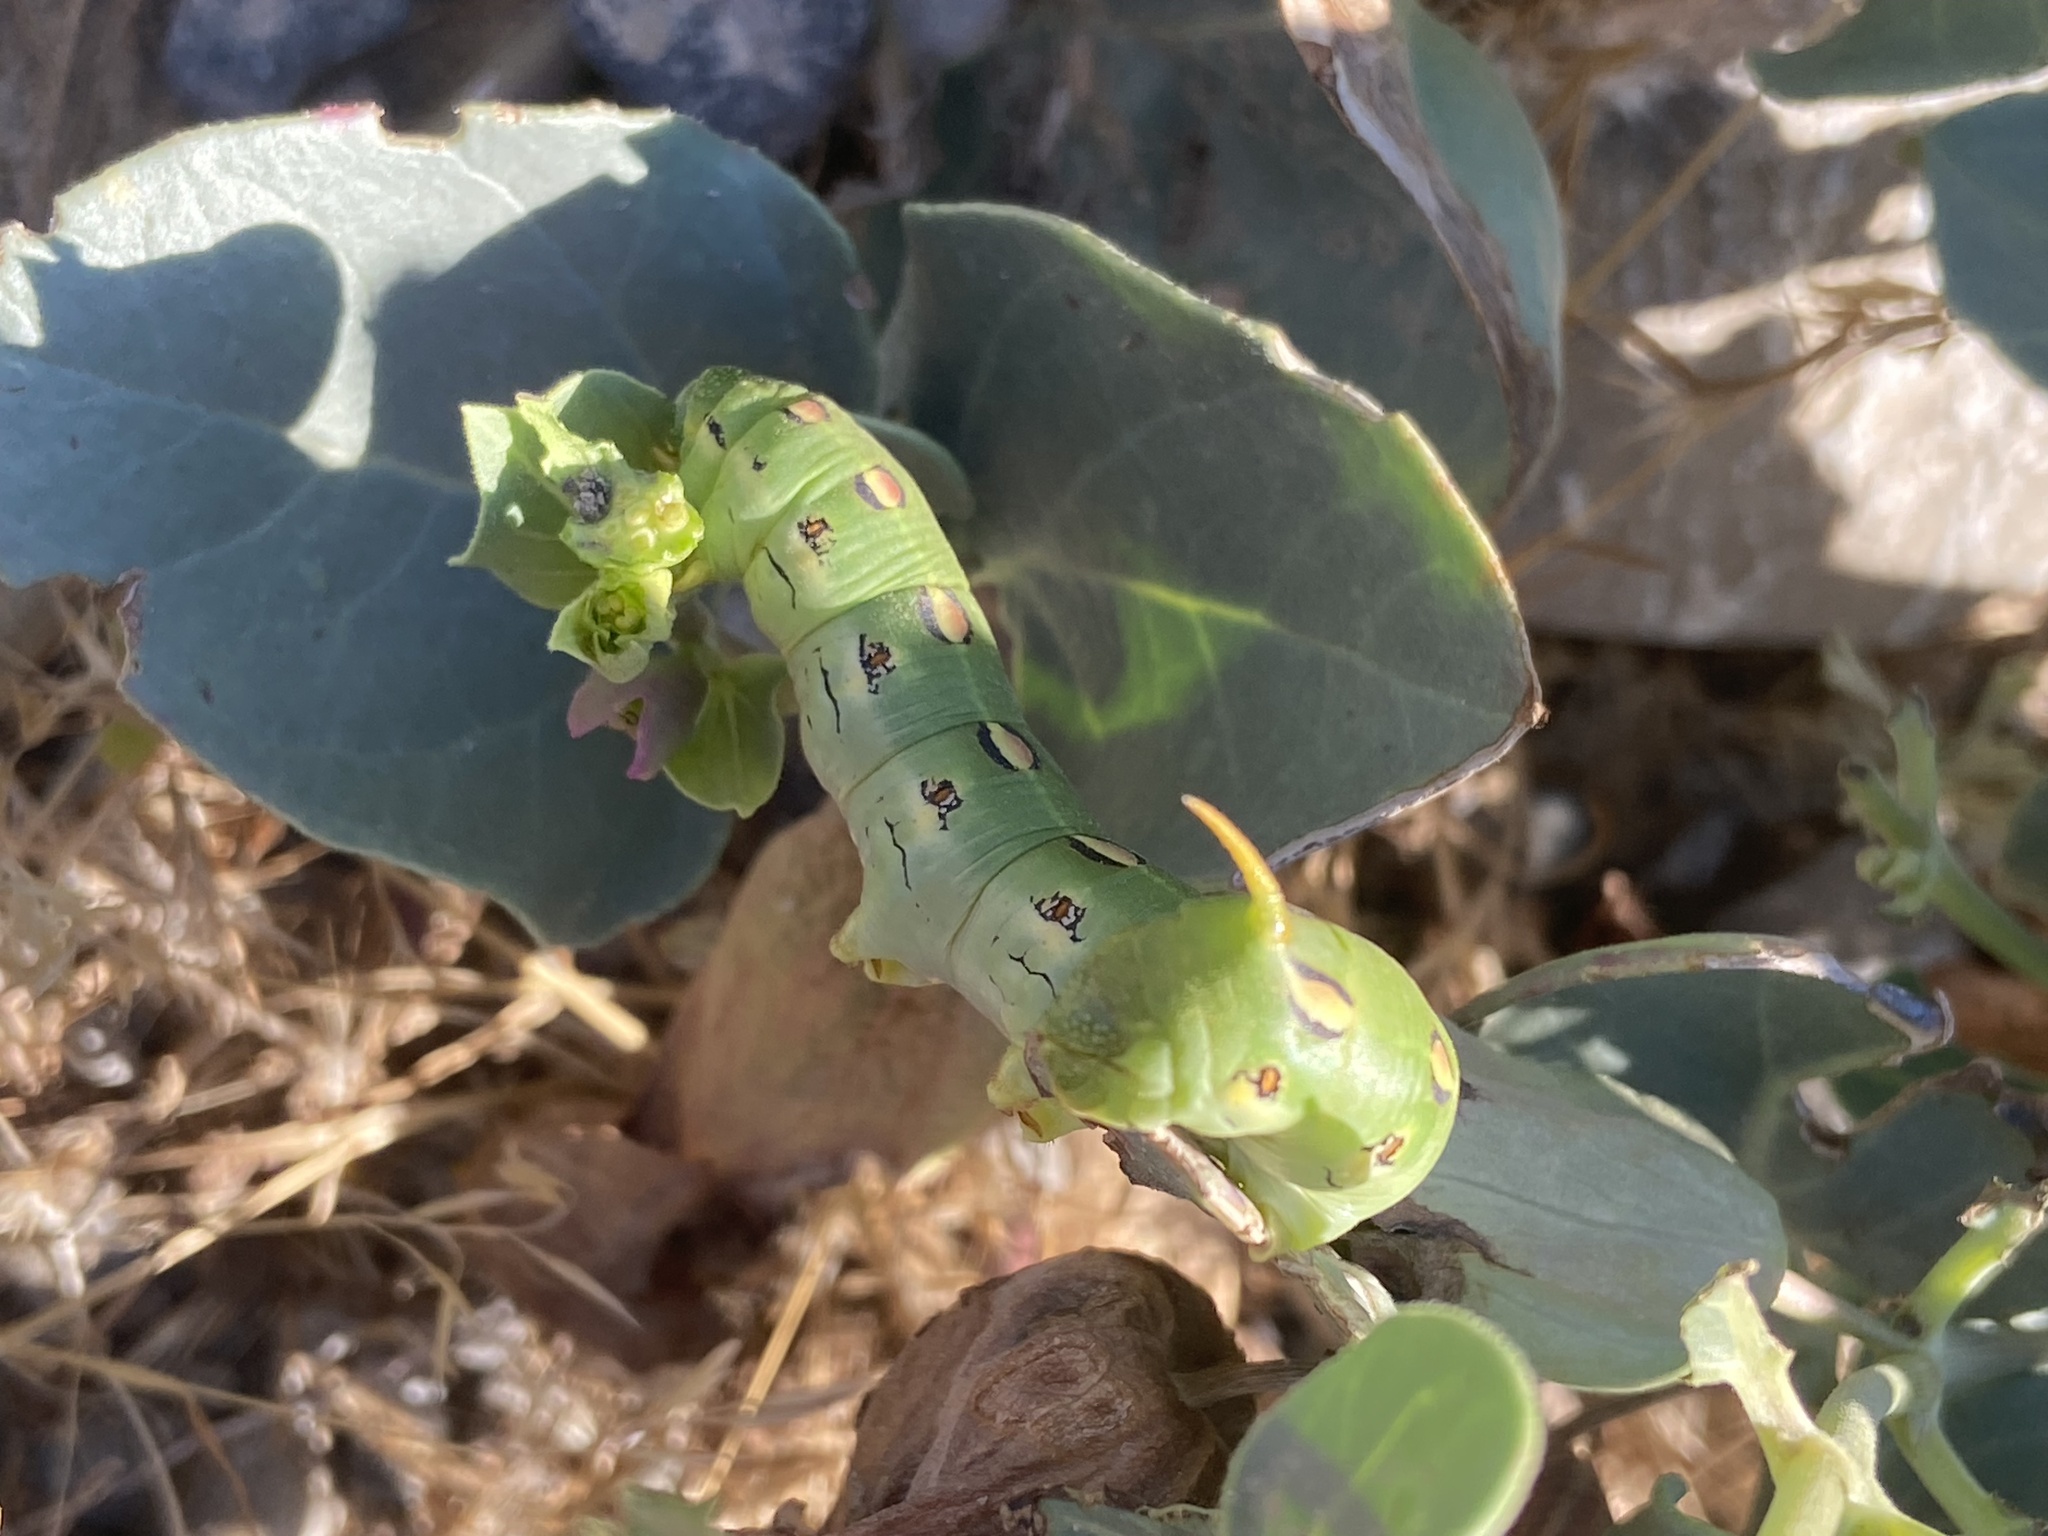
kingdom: Animalia
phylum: Arthropoda
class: Insecta
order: Lepidoptera
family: Sphingidae
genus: Hyles
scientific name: Hyles lineata
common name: White-lined sphinx
